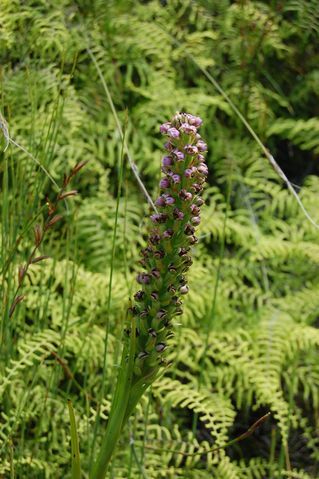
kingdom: Plantae
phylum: Tracheophyta
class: Liliopsida
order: Asparagales
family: Orchidaceae
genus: Evotella
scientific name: Evotella carnosa
